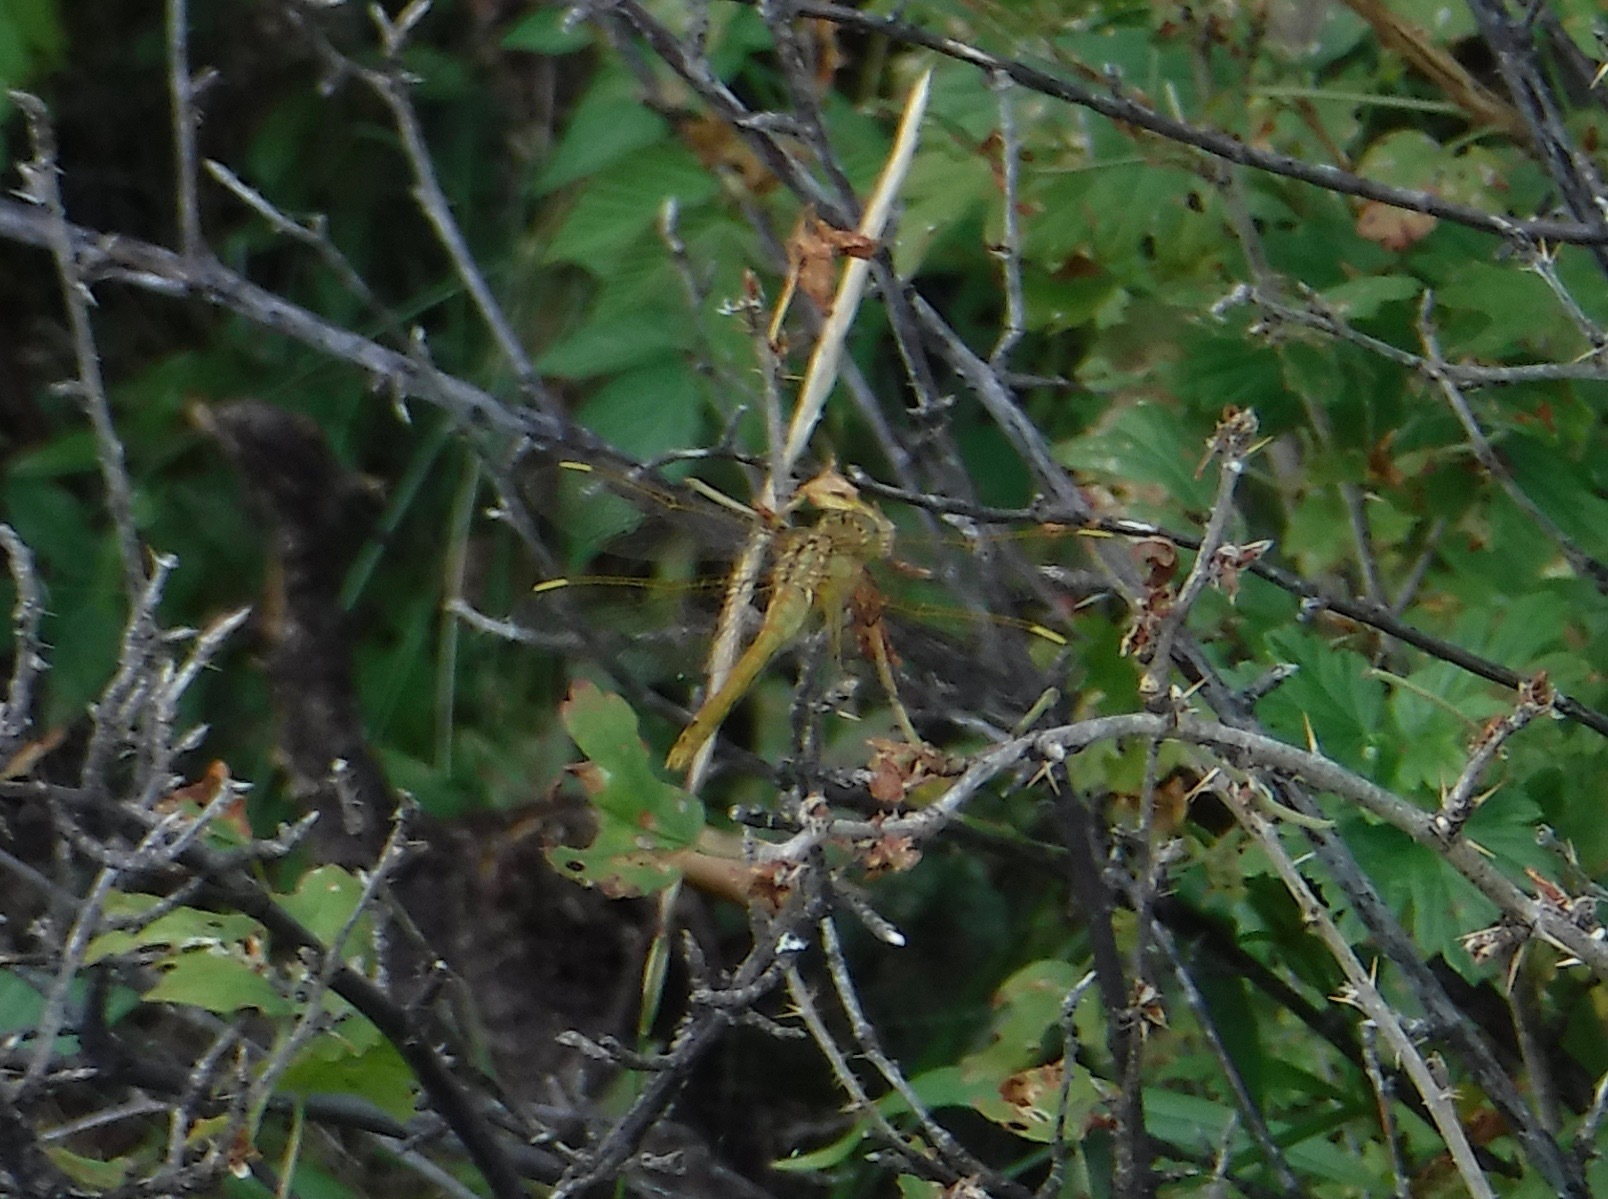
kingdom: Animalia
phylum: Arthropoda
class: Insecta
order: Odonata
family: Libellulidae
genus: Sympetrum
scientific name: Sympetrum costiferum
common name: Saffron-winged meadowhawk
